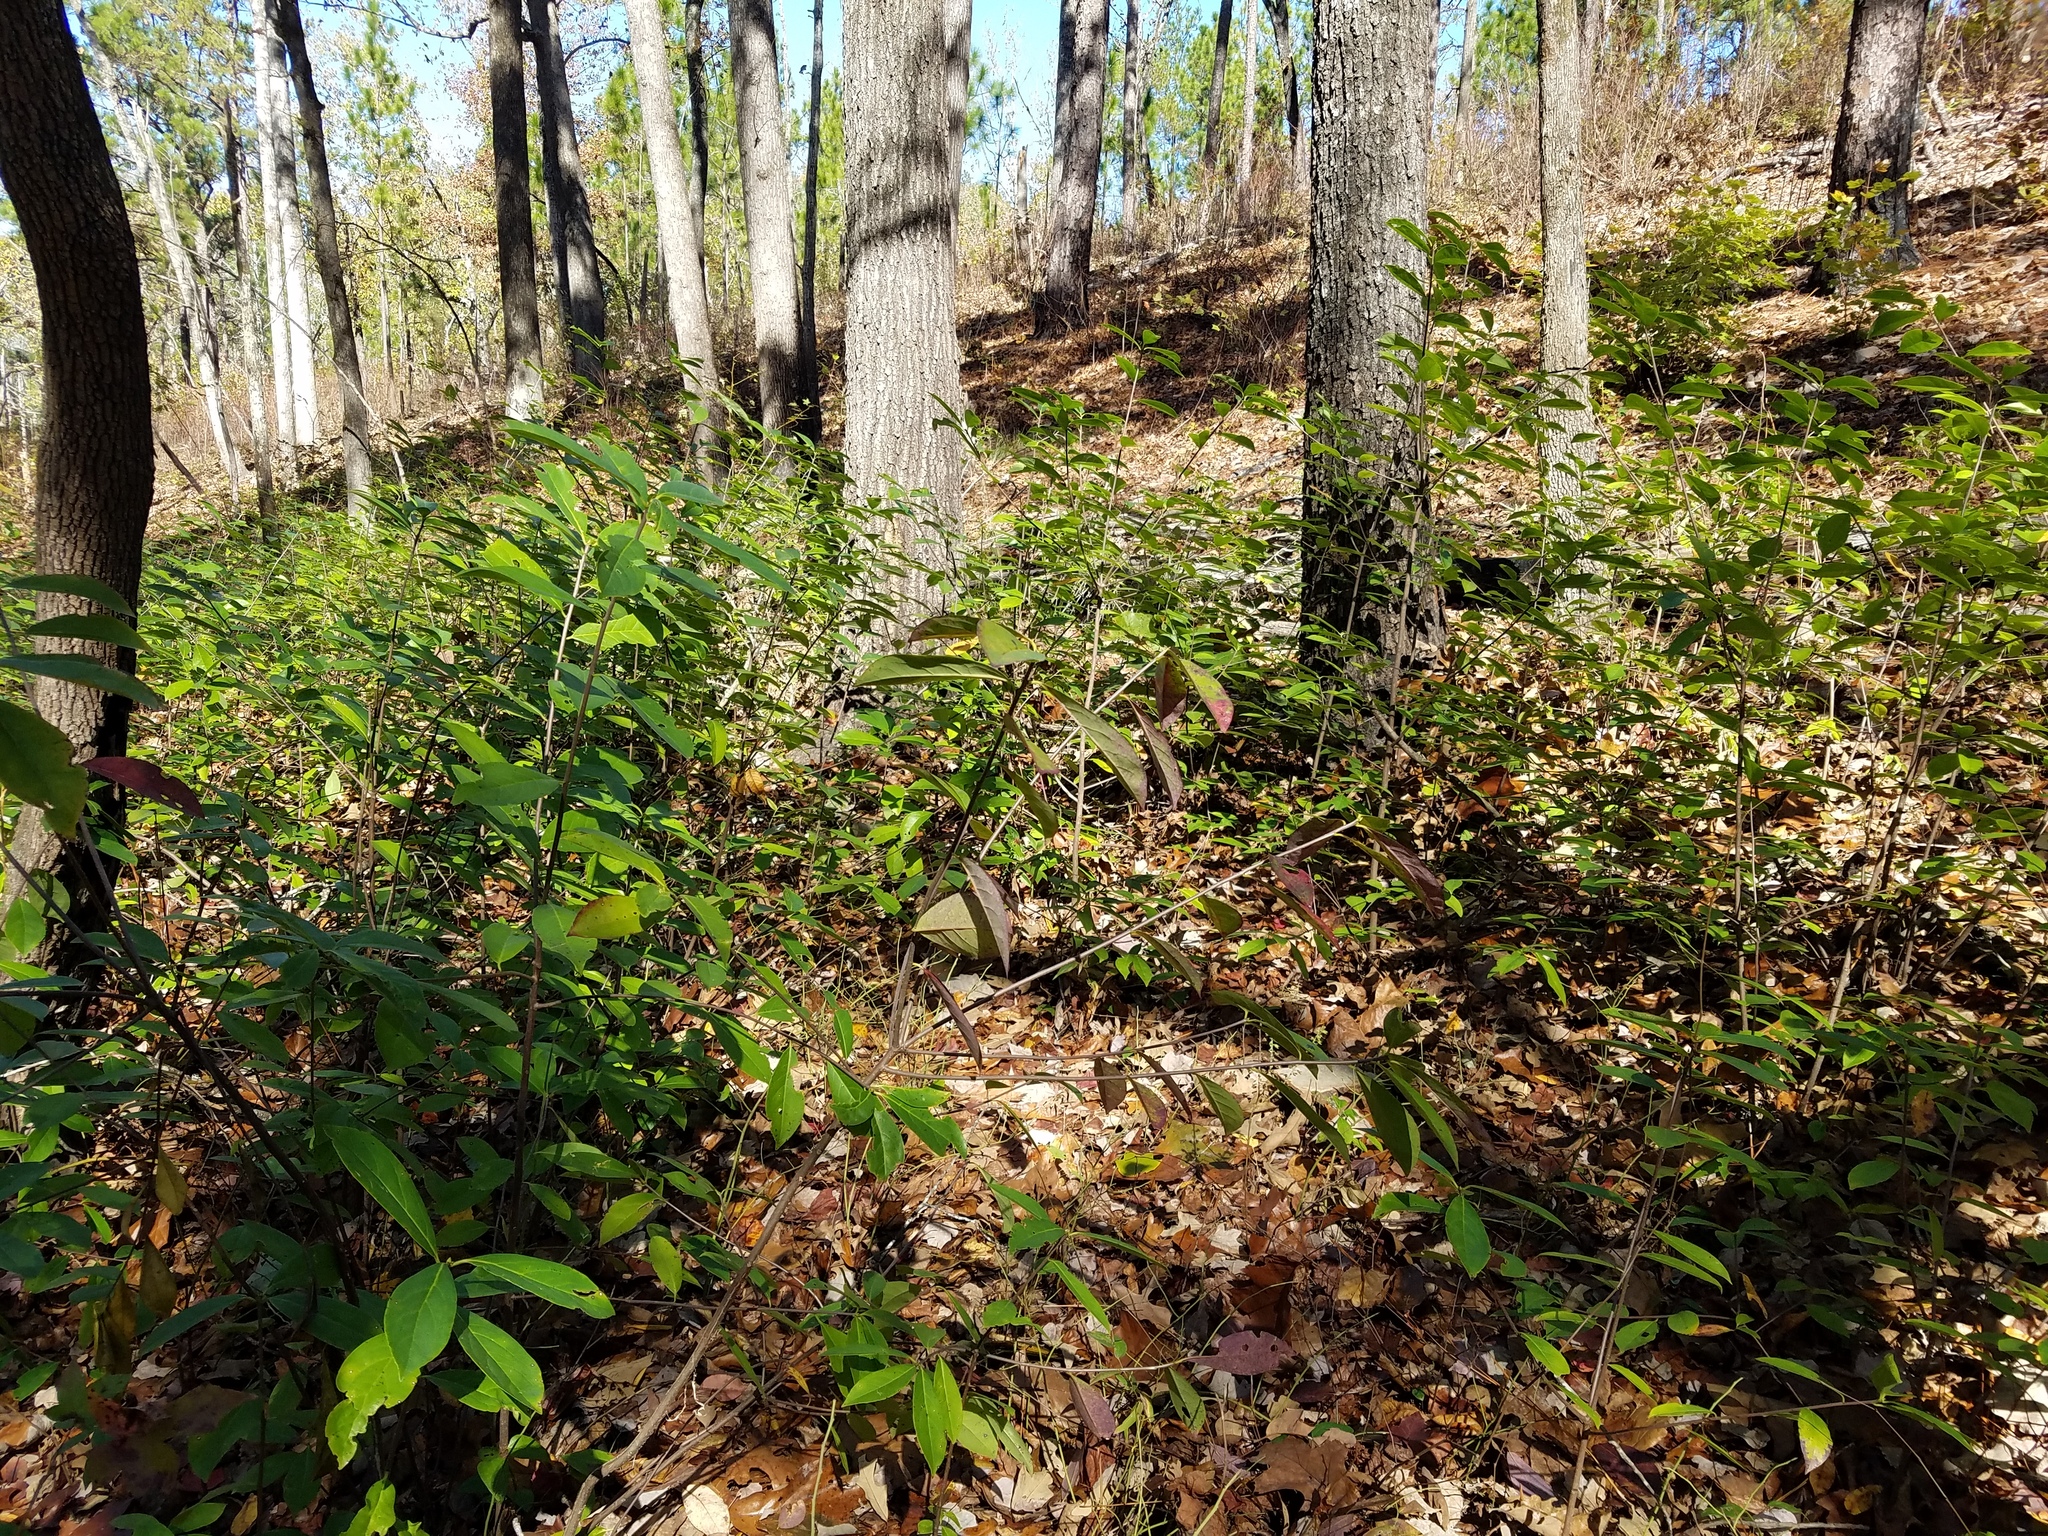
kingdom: Plantae
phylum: Tracheophyta
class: Magnoliopsida
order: Ericales
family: Symplocaceae
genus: Symplocos
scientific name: Symplocos tinctoria
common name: Horse-sugar
